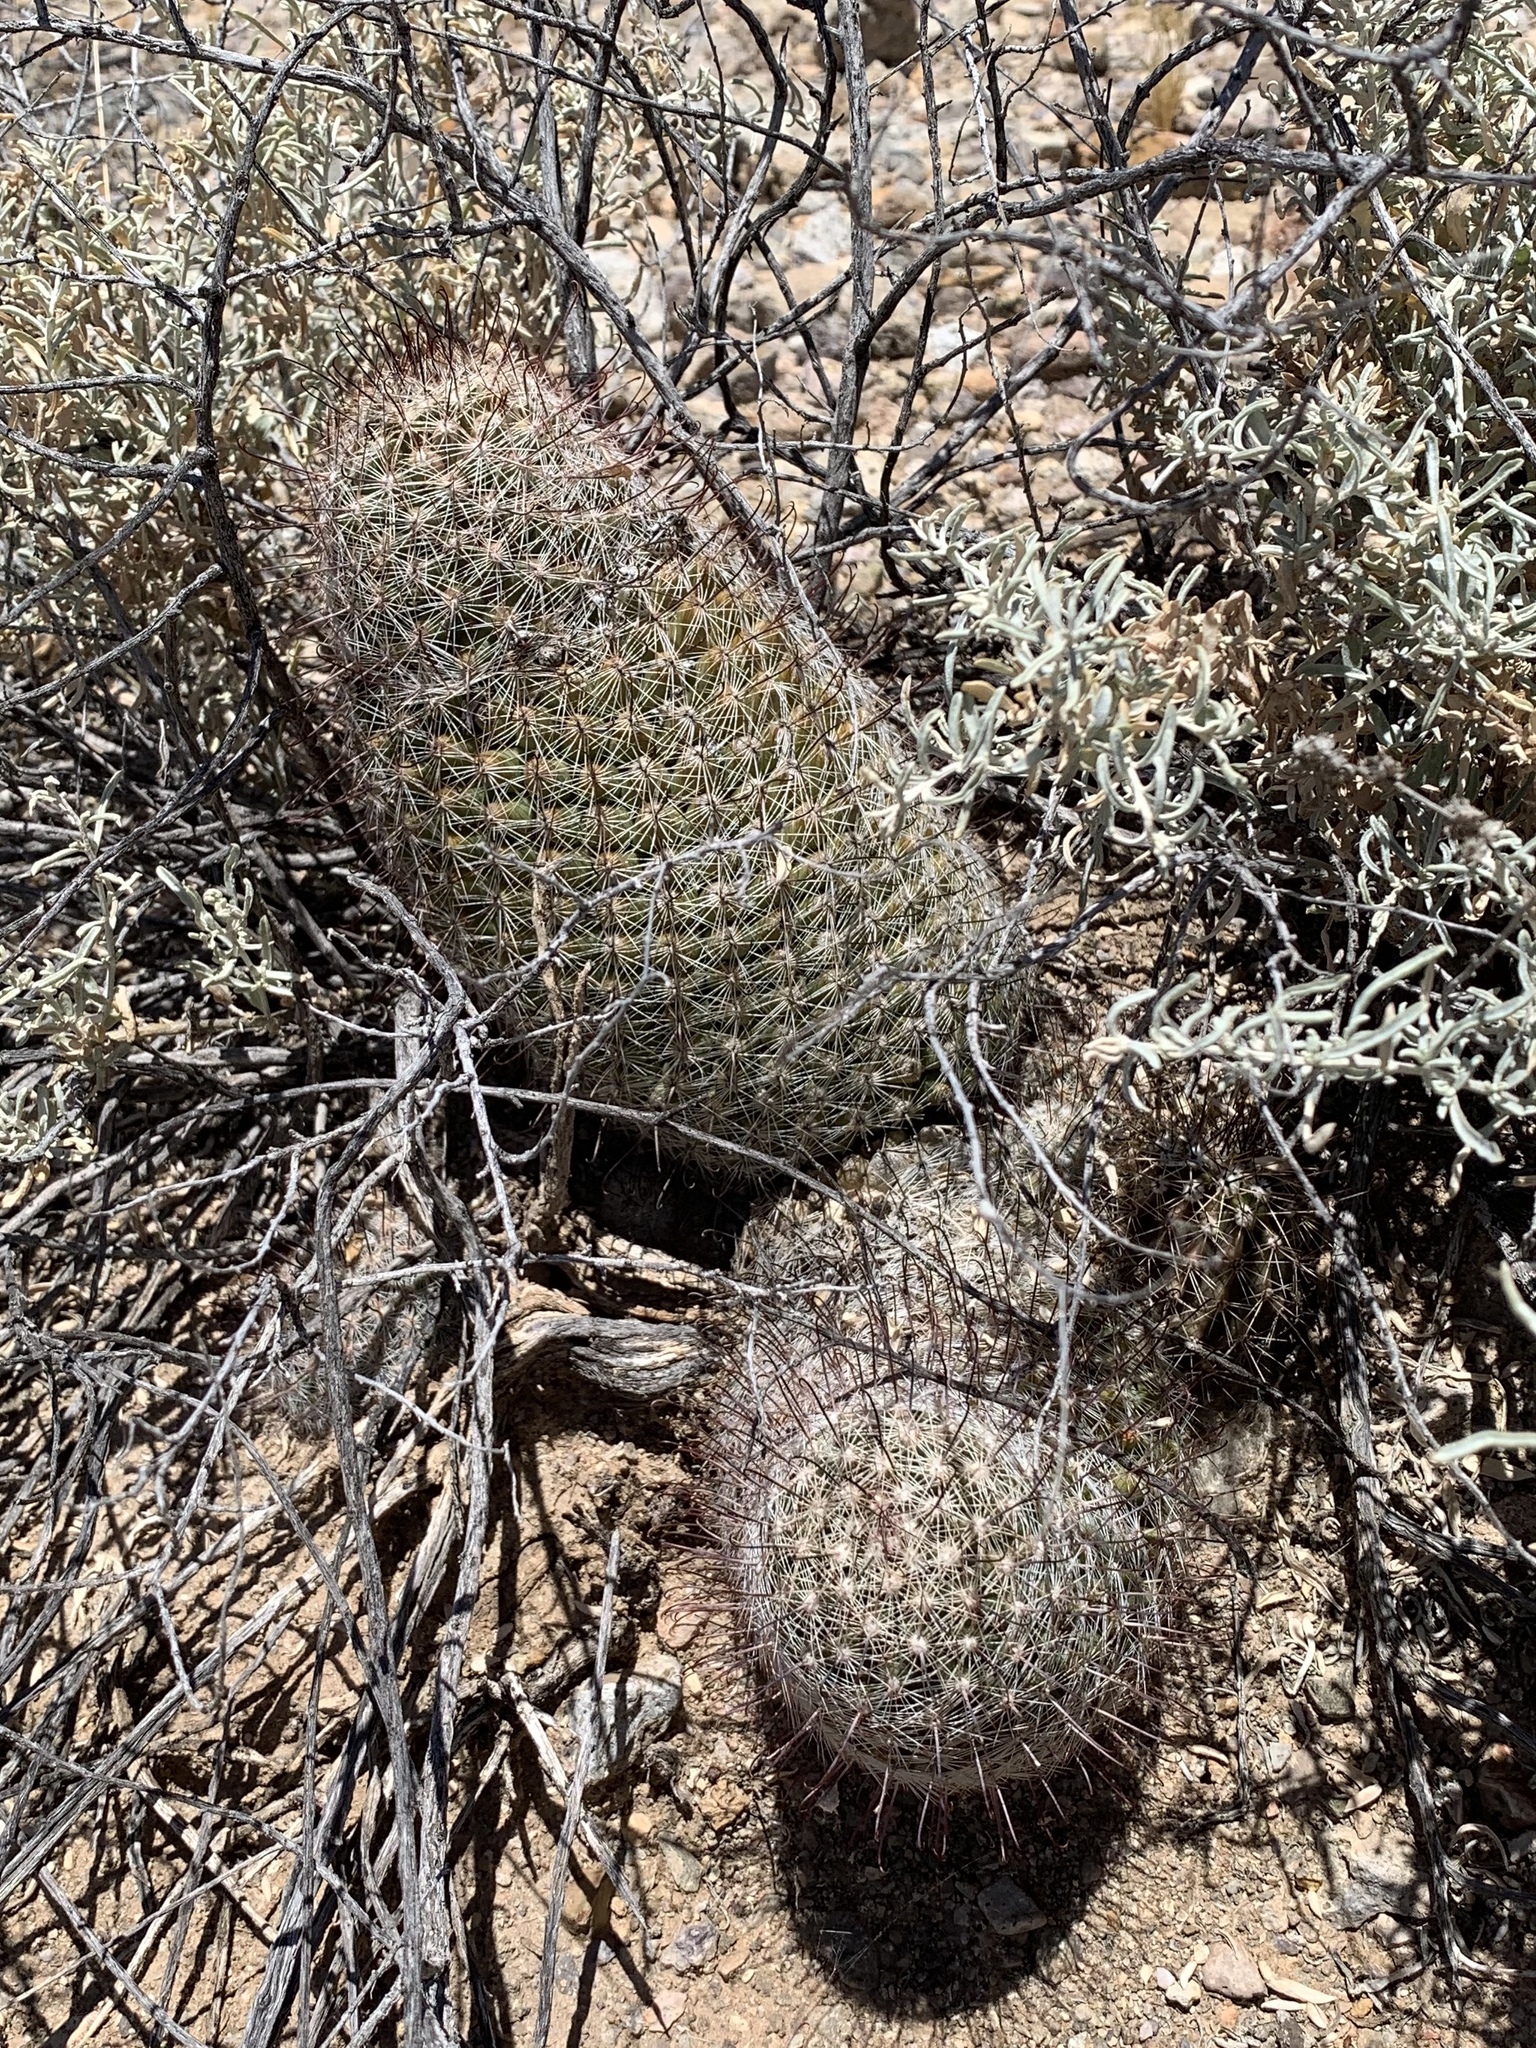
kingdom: Plantae
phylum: Tracheophyta
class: Magnoliopsida
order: Caryophyllales
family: Cactaceae
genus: Cochemiea
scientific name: Cochemiea grahamii
